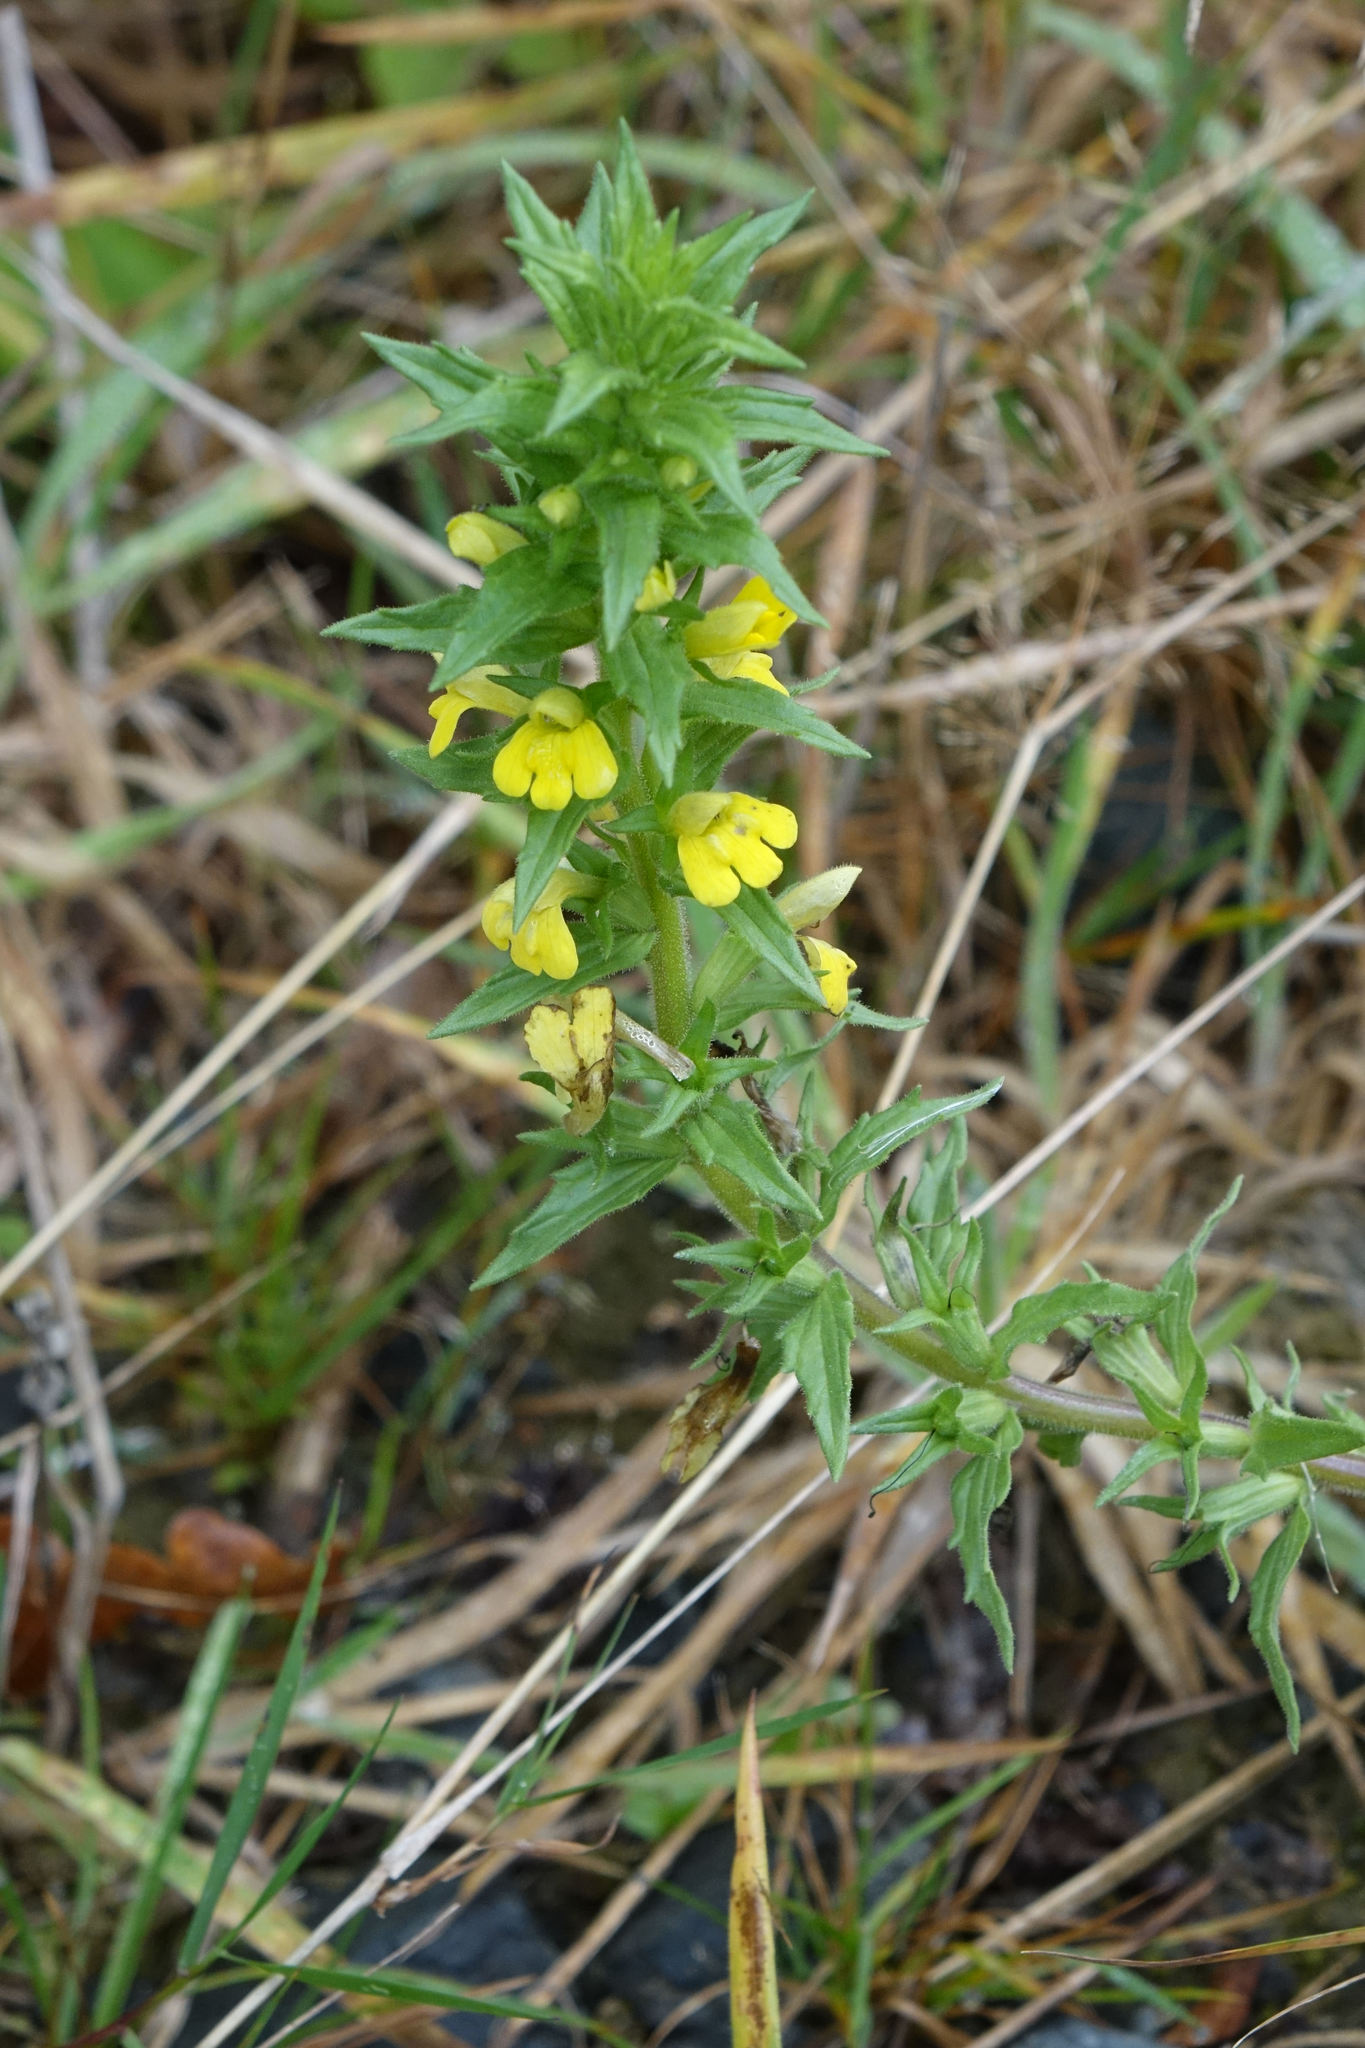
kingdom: Plantae
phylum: Tracheophyta
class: Magnoliopsida
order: Lamiales
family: Orobanchaceae
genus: Bellardia
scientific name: Bellardia viscosa
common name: Sticky parentucellia
